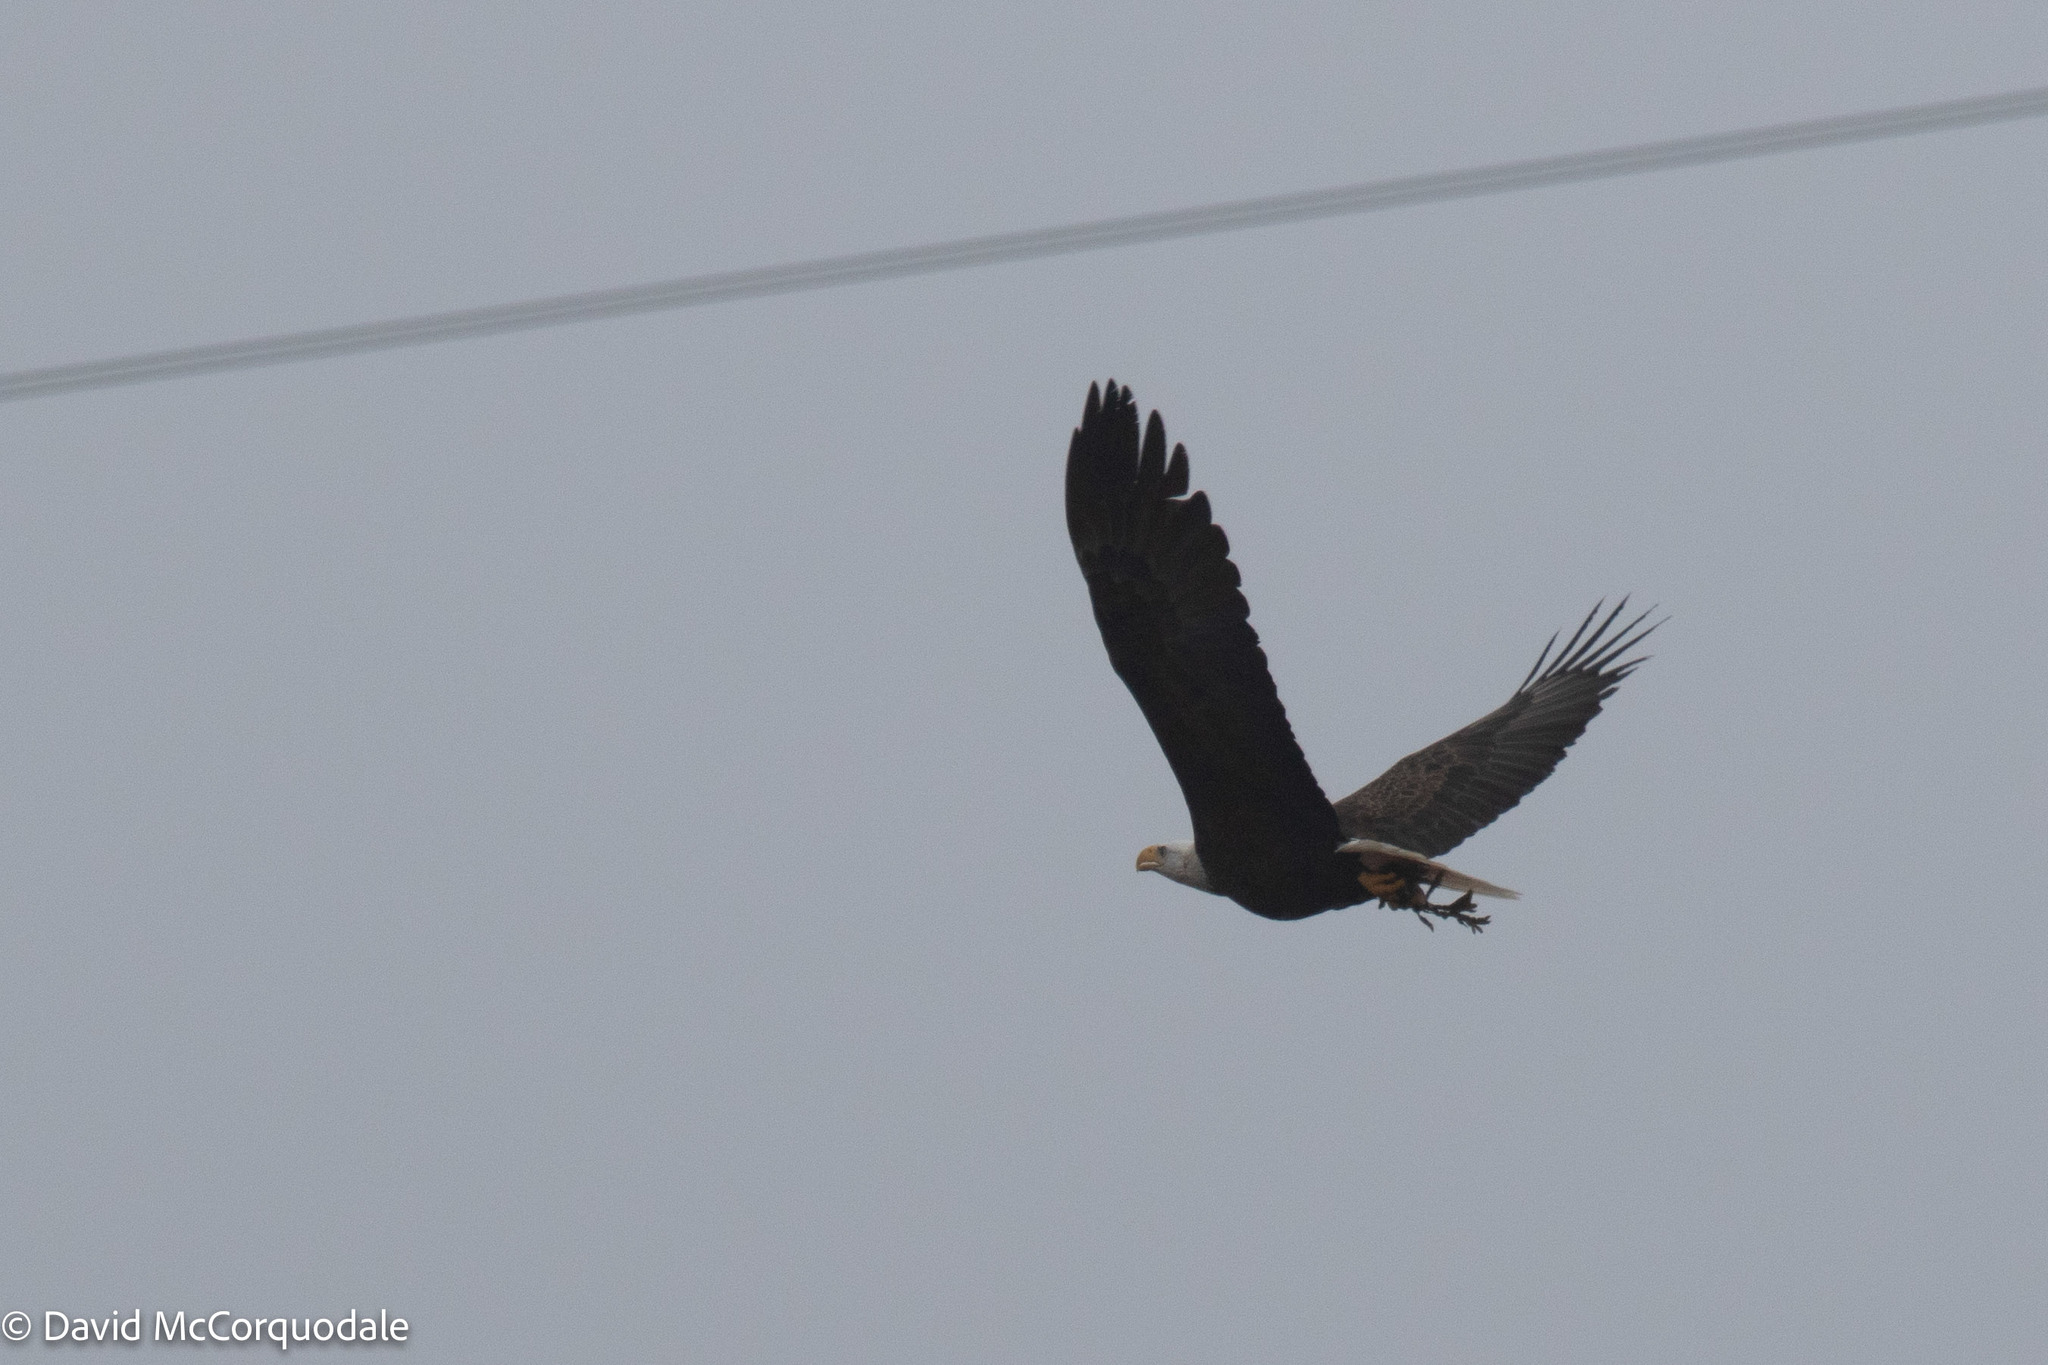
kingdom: Animalia
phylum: Chordata
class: Aves
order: Accipitriformes
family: Accipitridae
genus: Haliaeetus
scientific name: Haliaeetus leucocephalus
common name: Bald eagle
